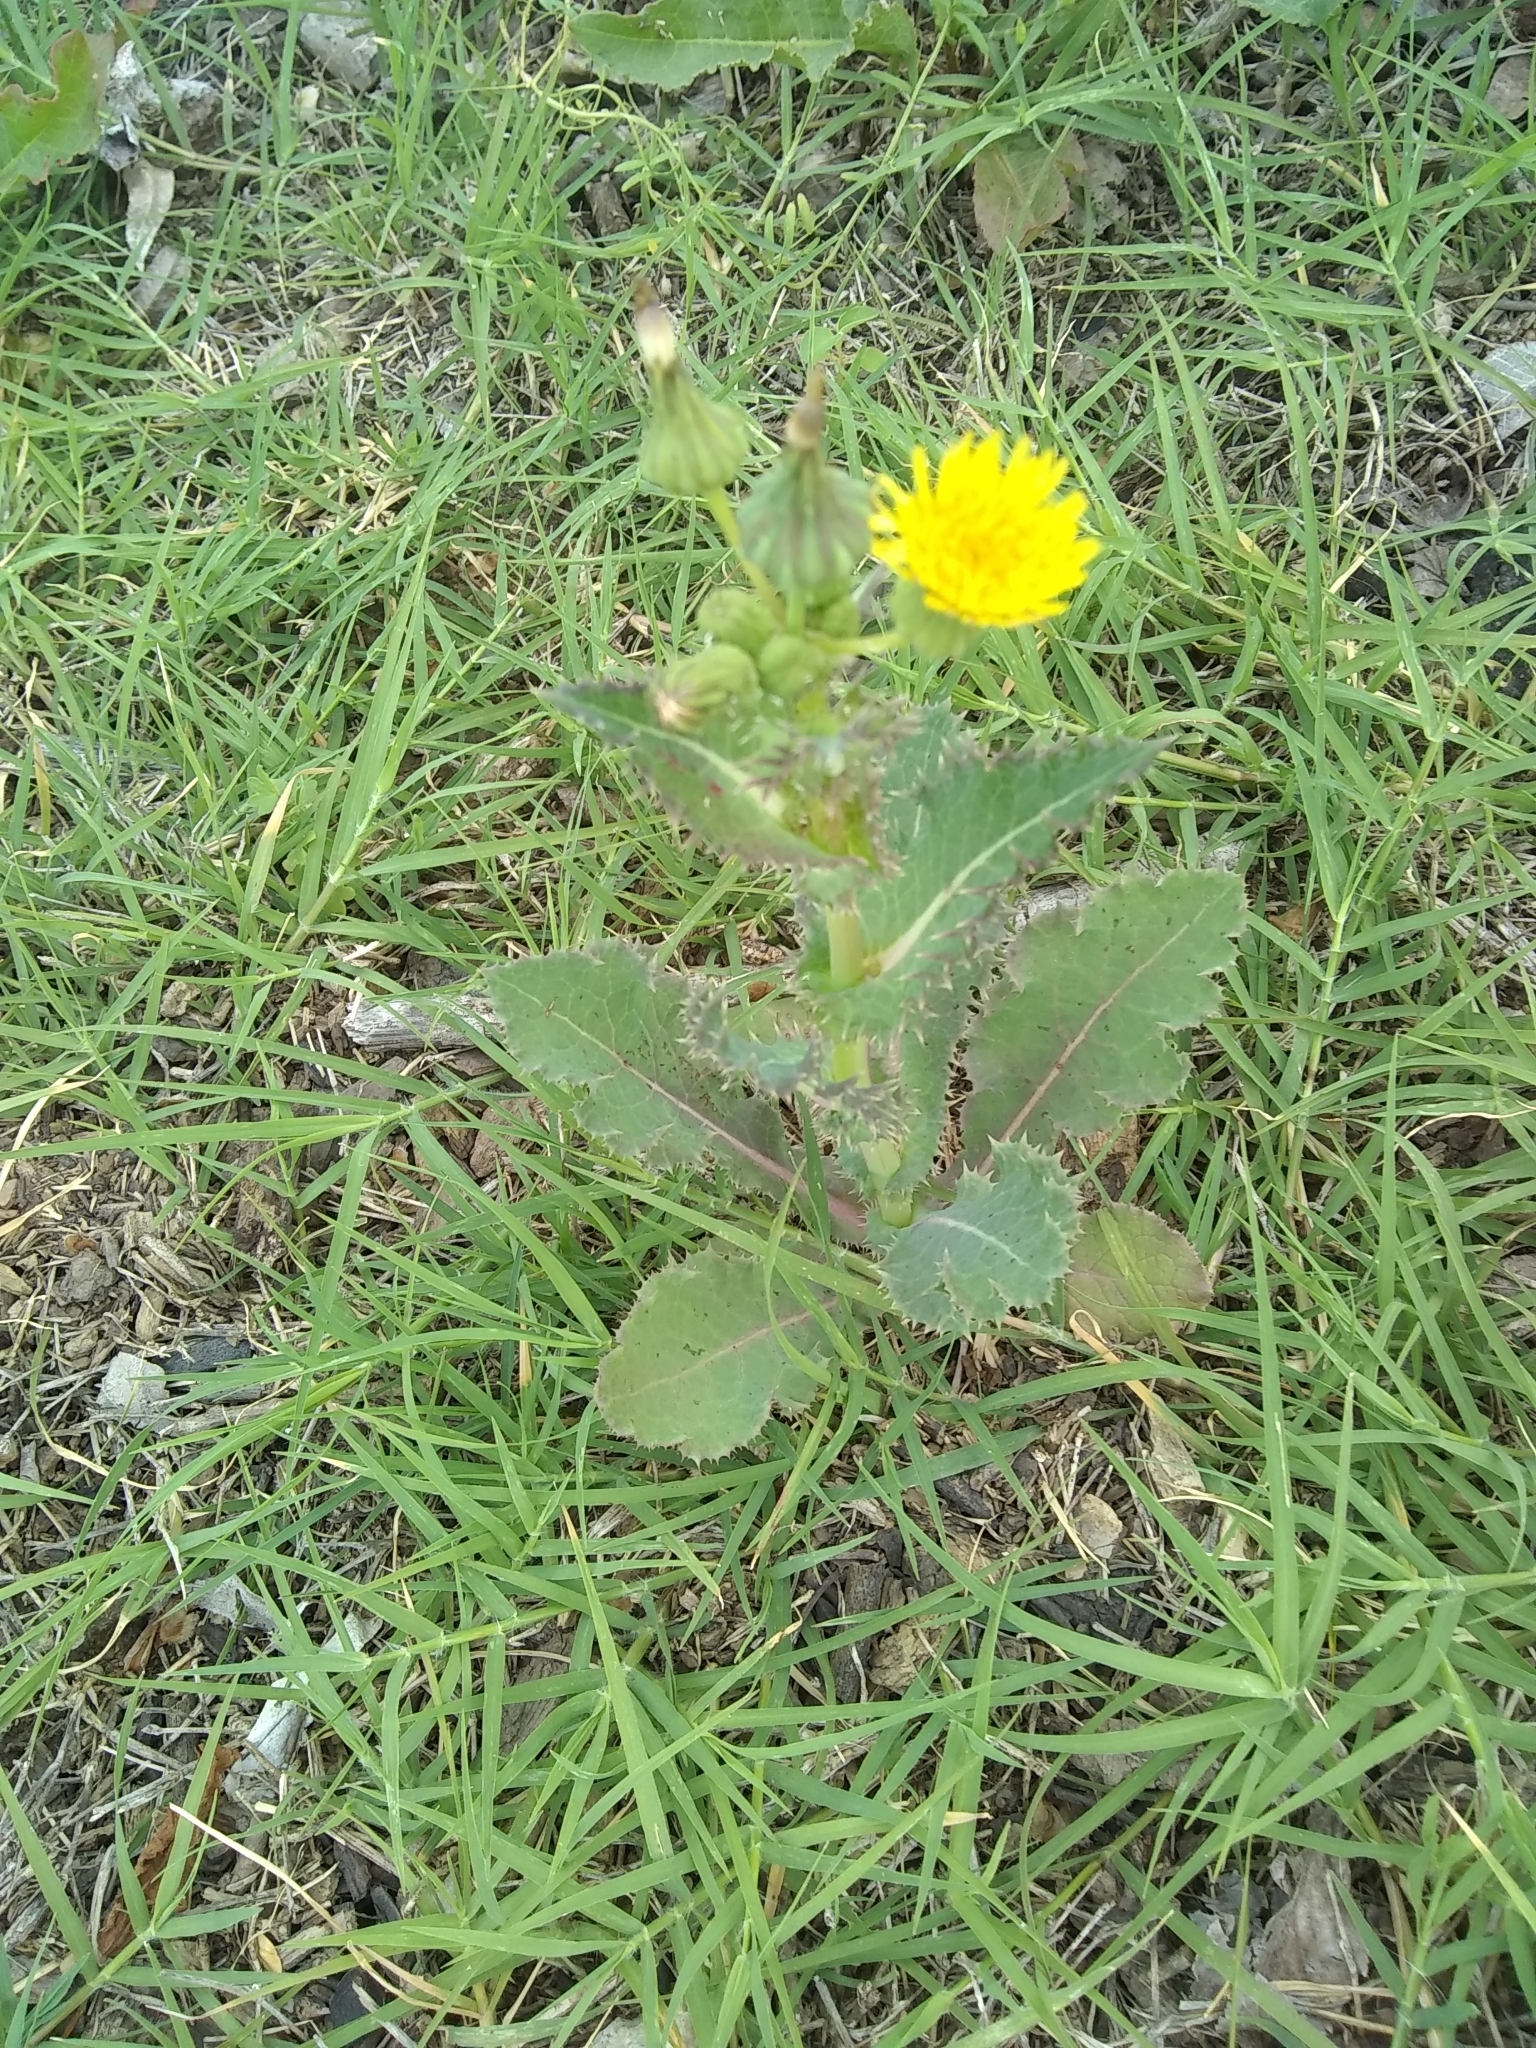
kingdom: Plantae
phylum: Tracheophyta
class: Magnoliopsida
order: Asterales
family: Asteraceae
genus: Sonchus
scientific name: Sonchus asper
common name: Prickly sow-thistle
